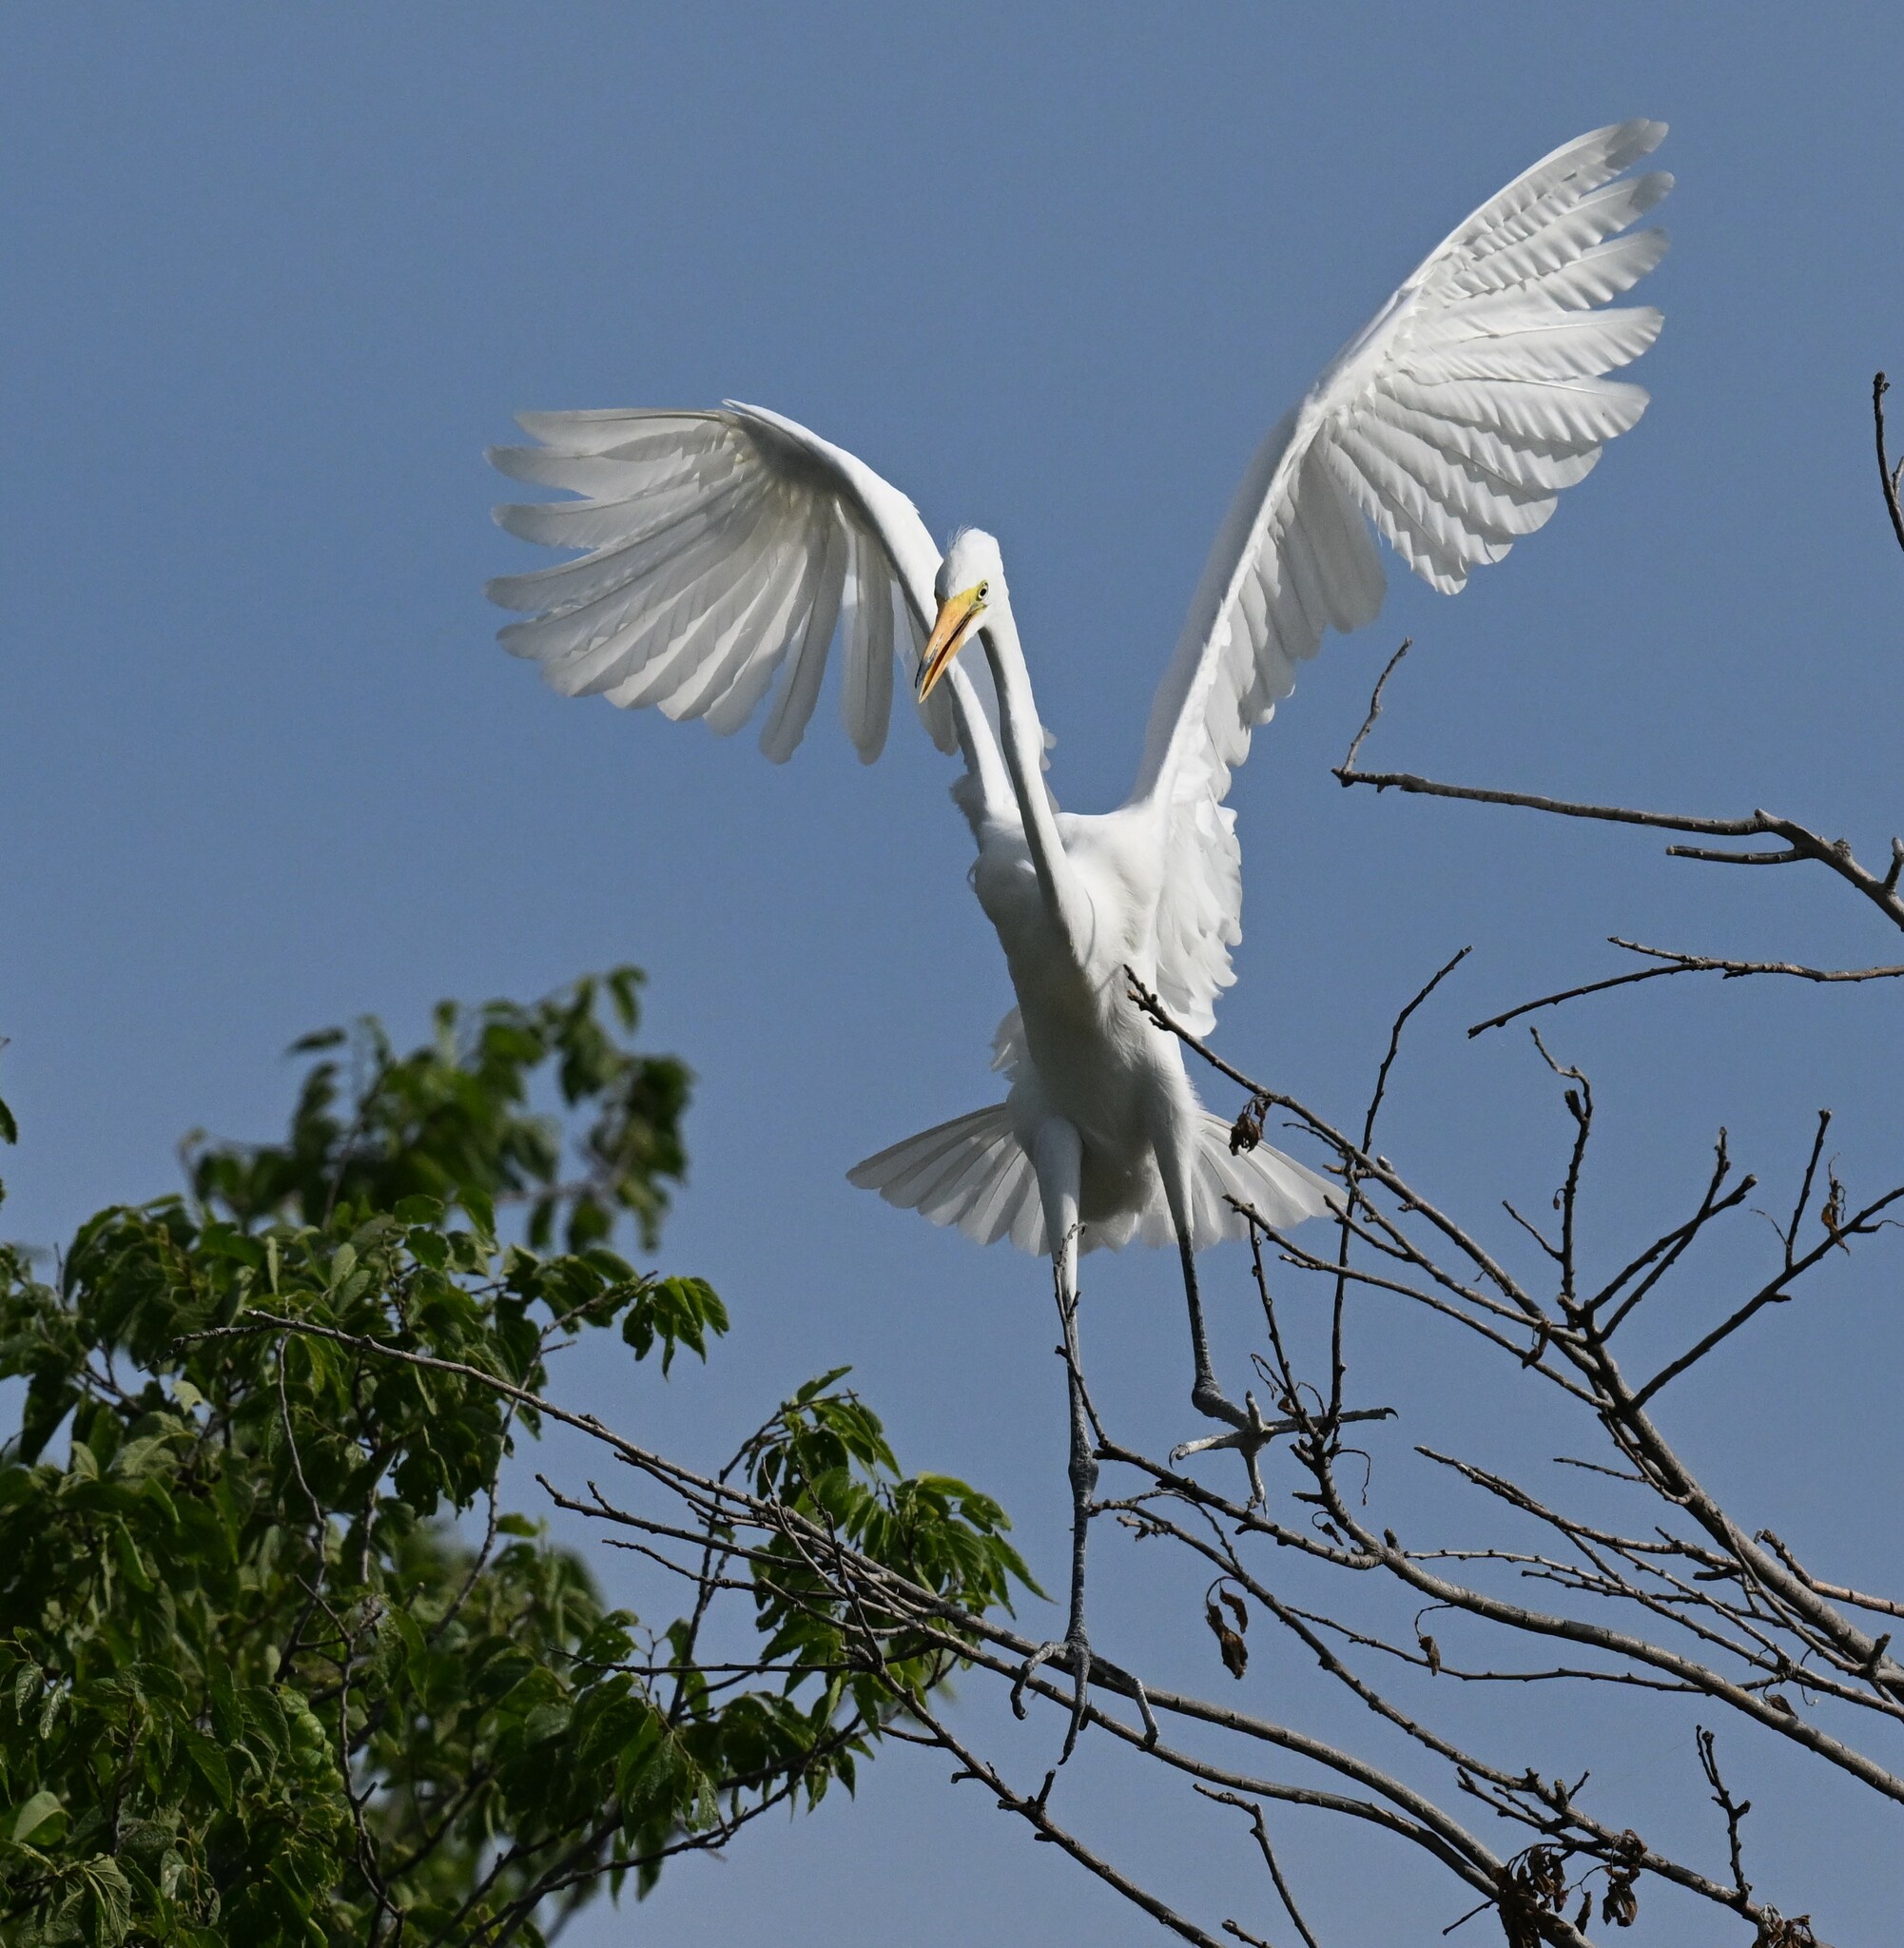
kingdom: Animalia
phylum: Chordata
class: Aves
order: Pelecaniformes
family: Ardeidae
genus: Ardea
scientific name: Ardea alba
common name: Great egret
